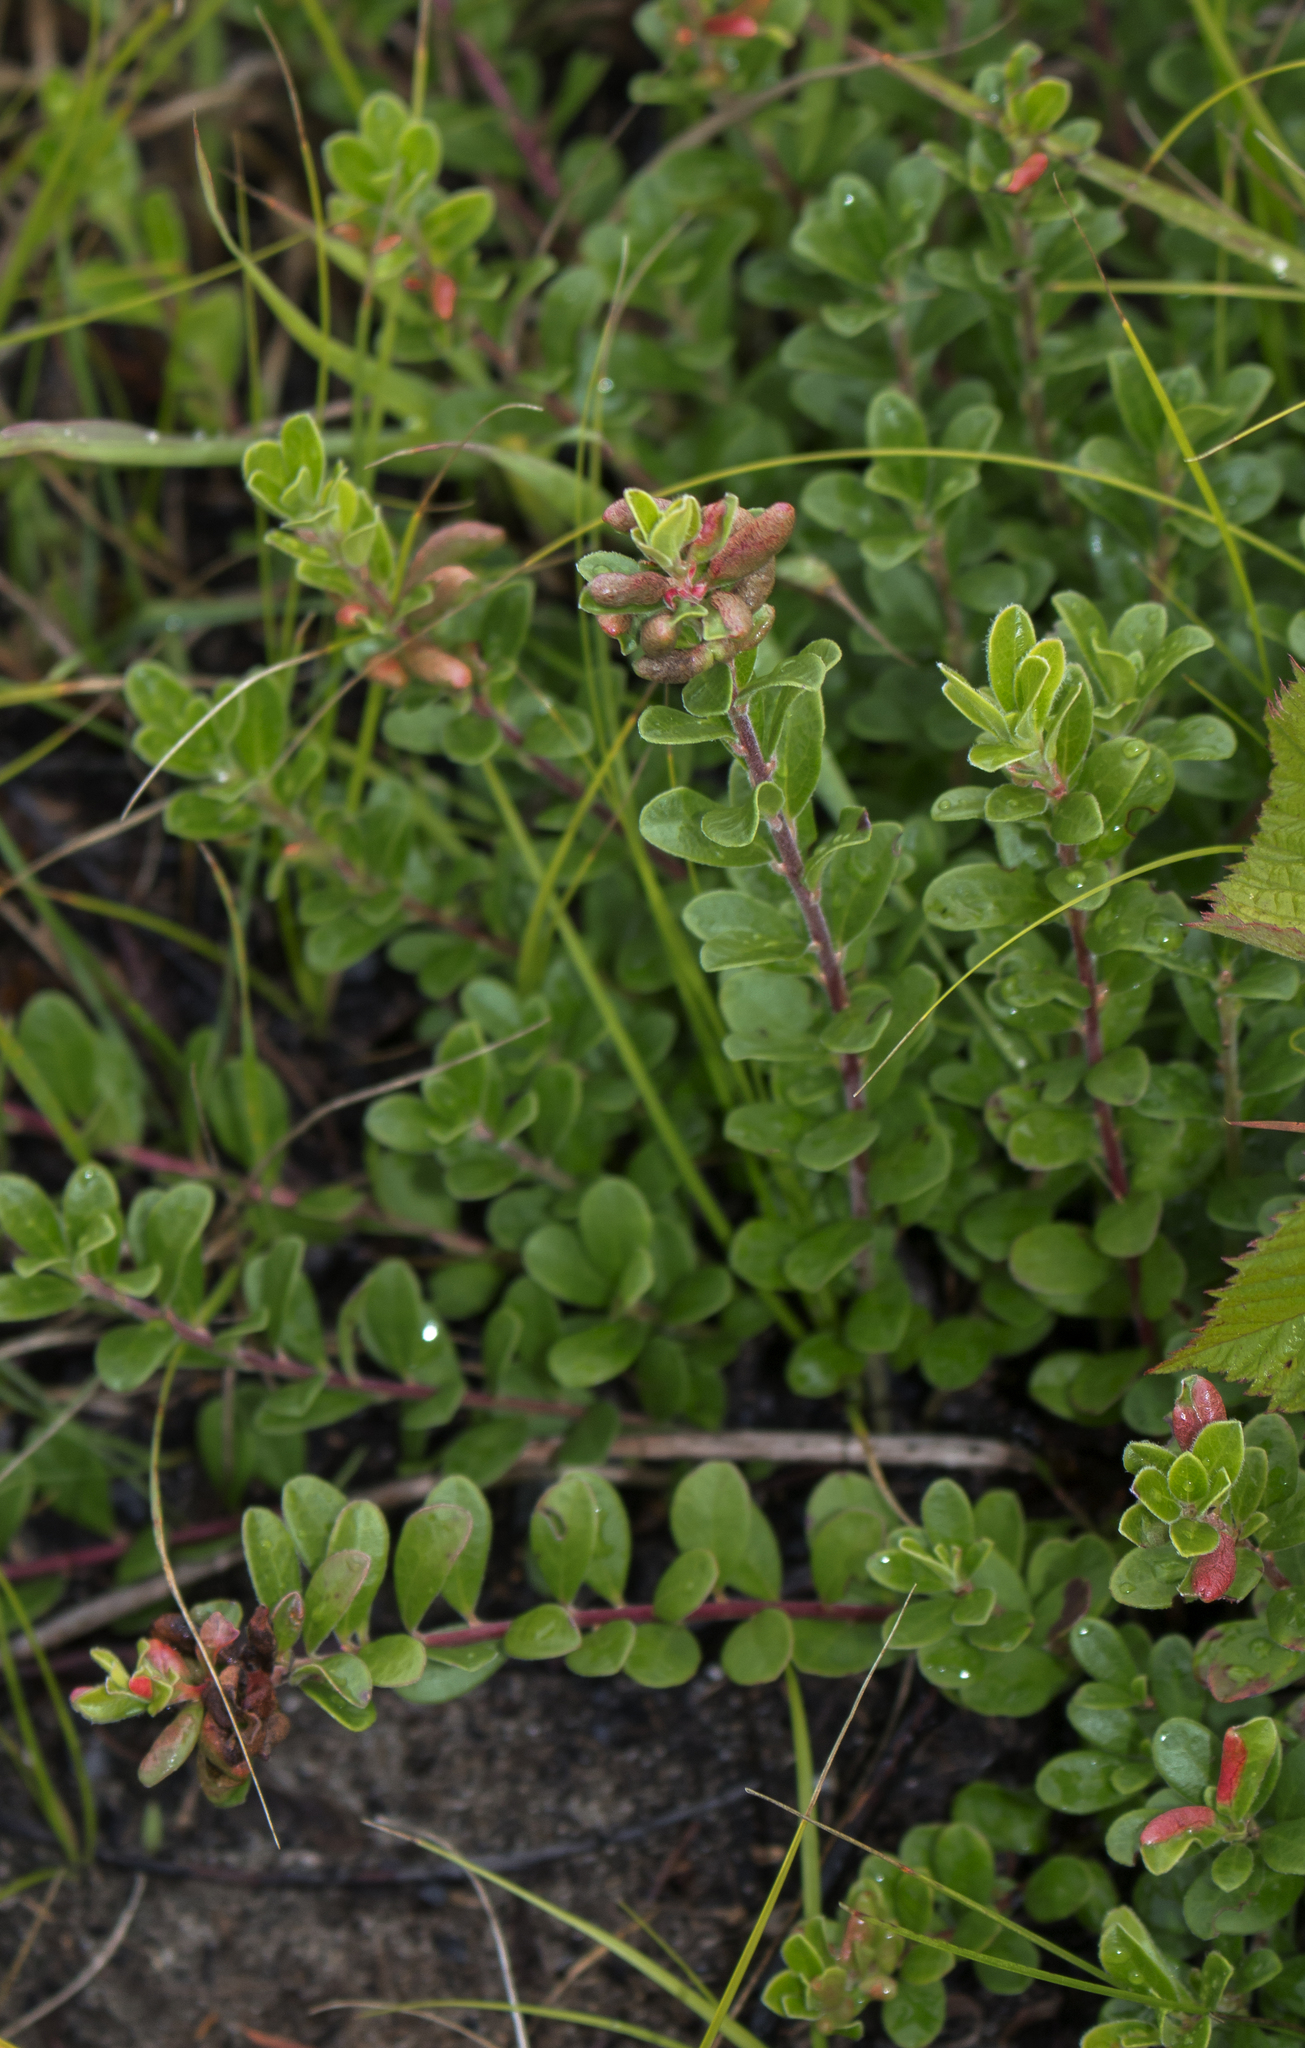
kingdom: Plantae
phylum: Tracheophyta
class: Magnoliopsida
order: Ericales
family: Ericaceae
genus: Arctostaphylos
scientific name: Arctostaphylos uva-ursi
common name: Bearberry
